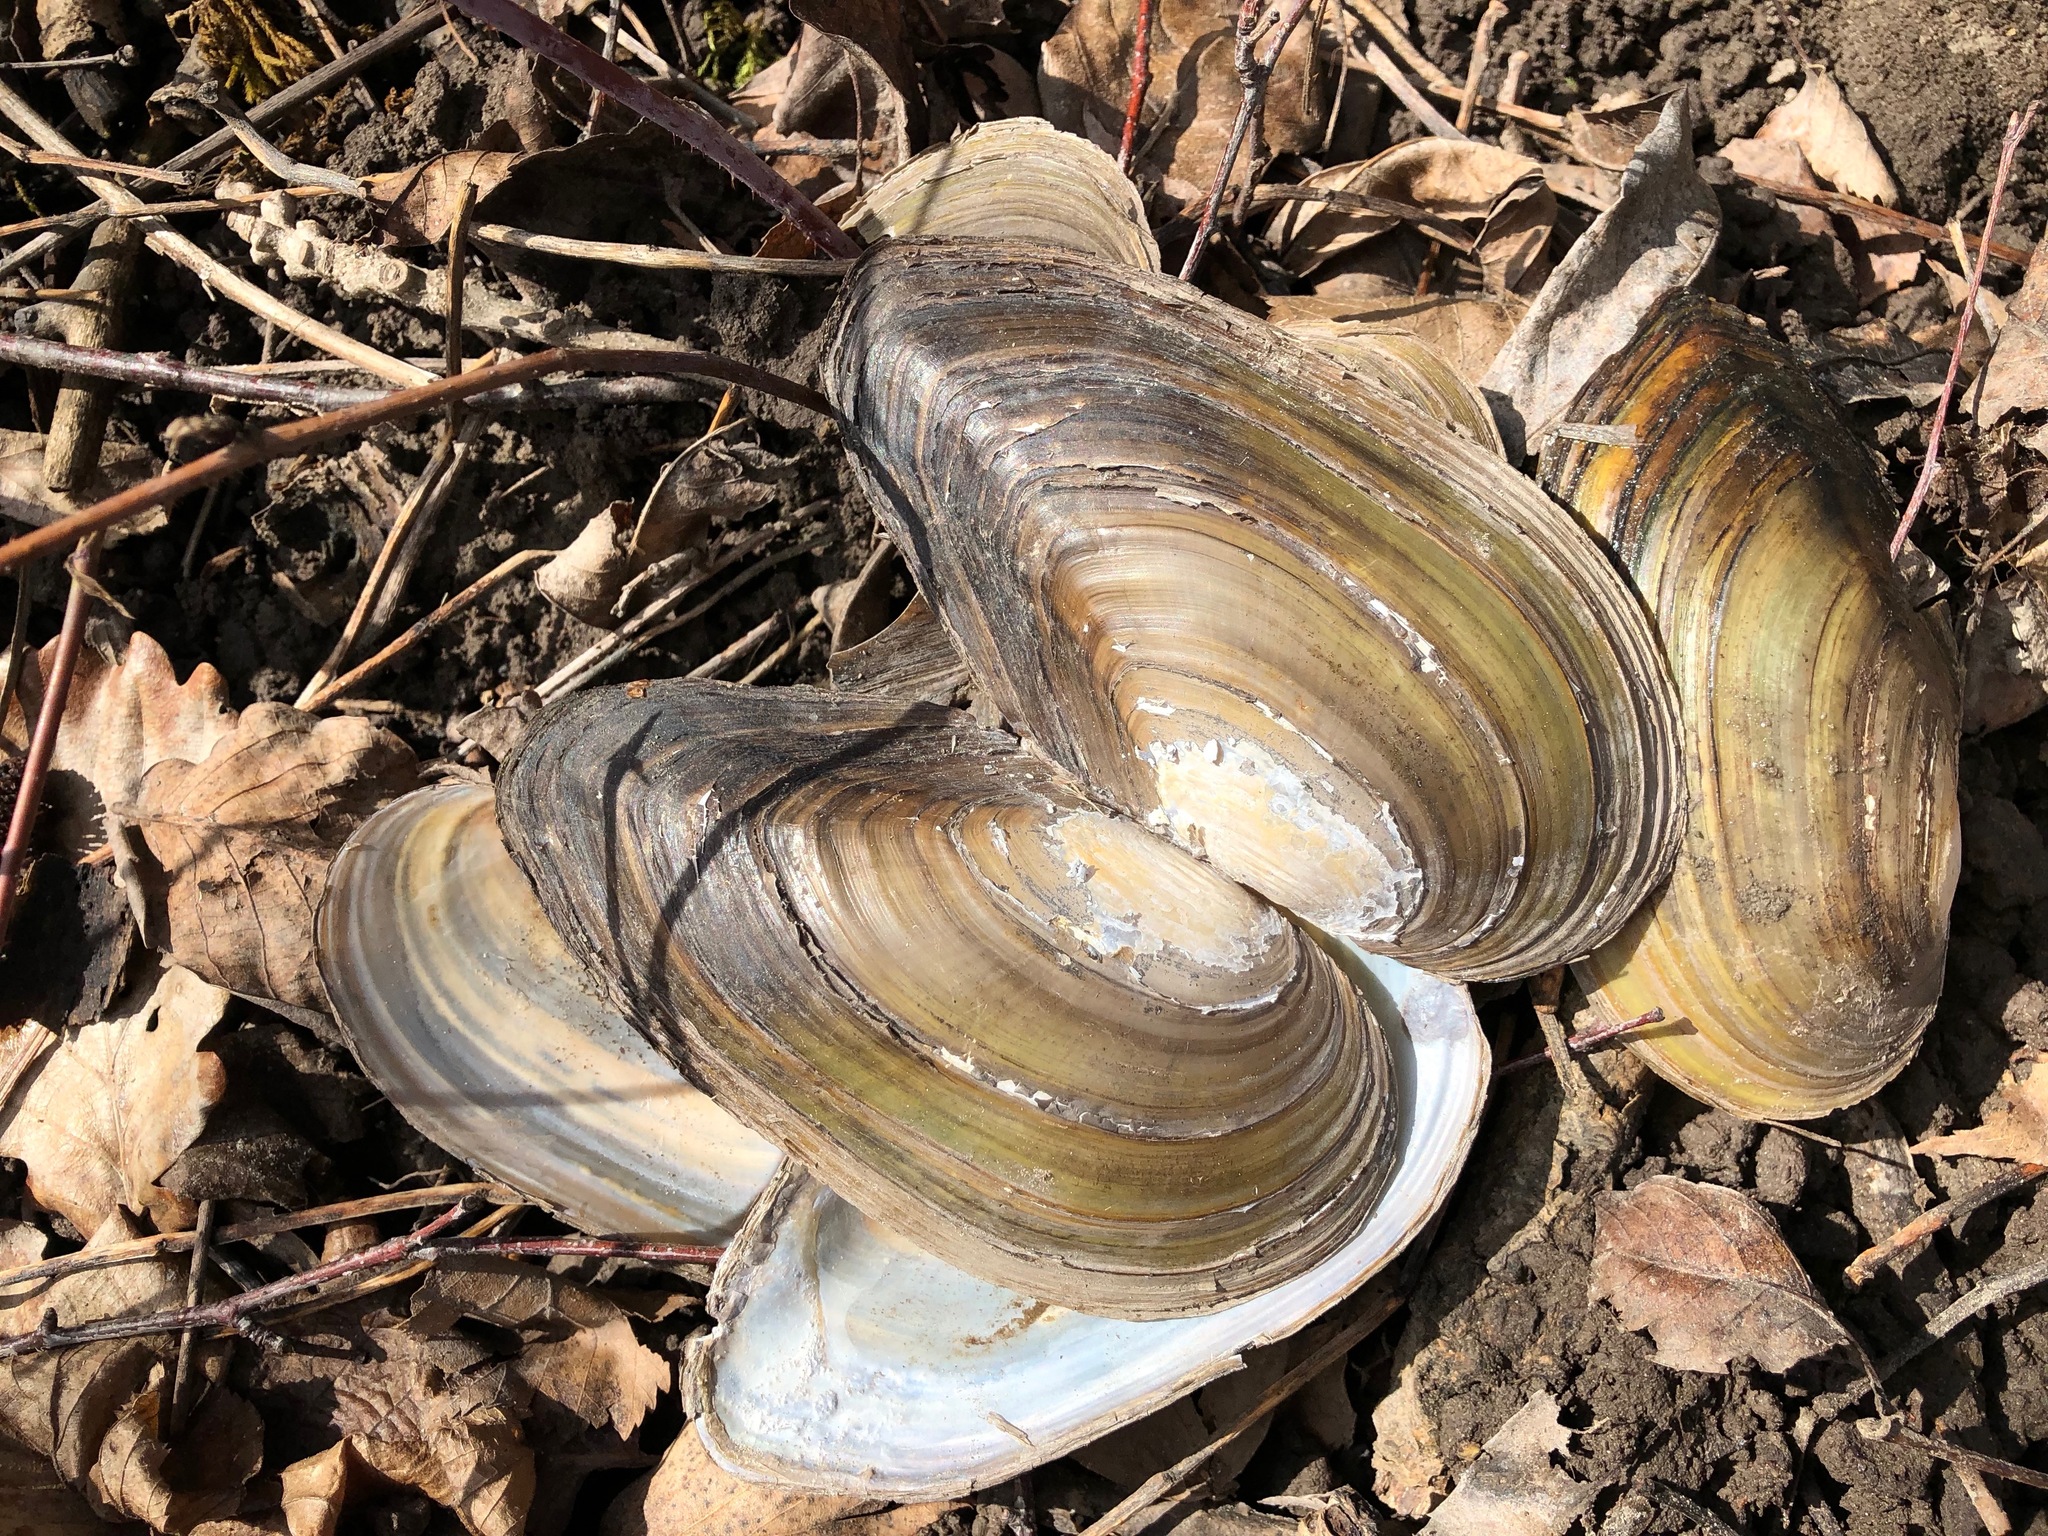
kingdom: Animalia
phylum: Mollusca
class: Bivalvia
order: Unionida
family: Unionidae
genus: Anodonta
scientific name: Anodonta cygnea
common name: Swan mussel
